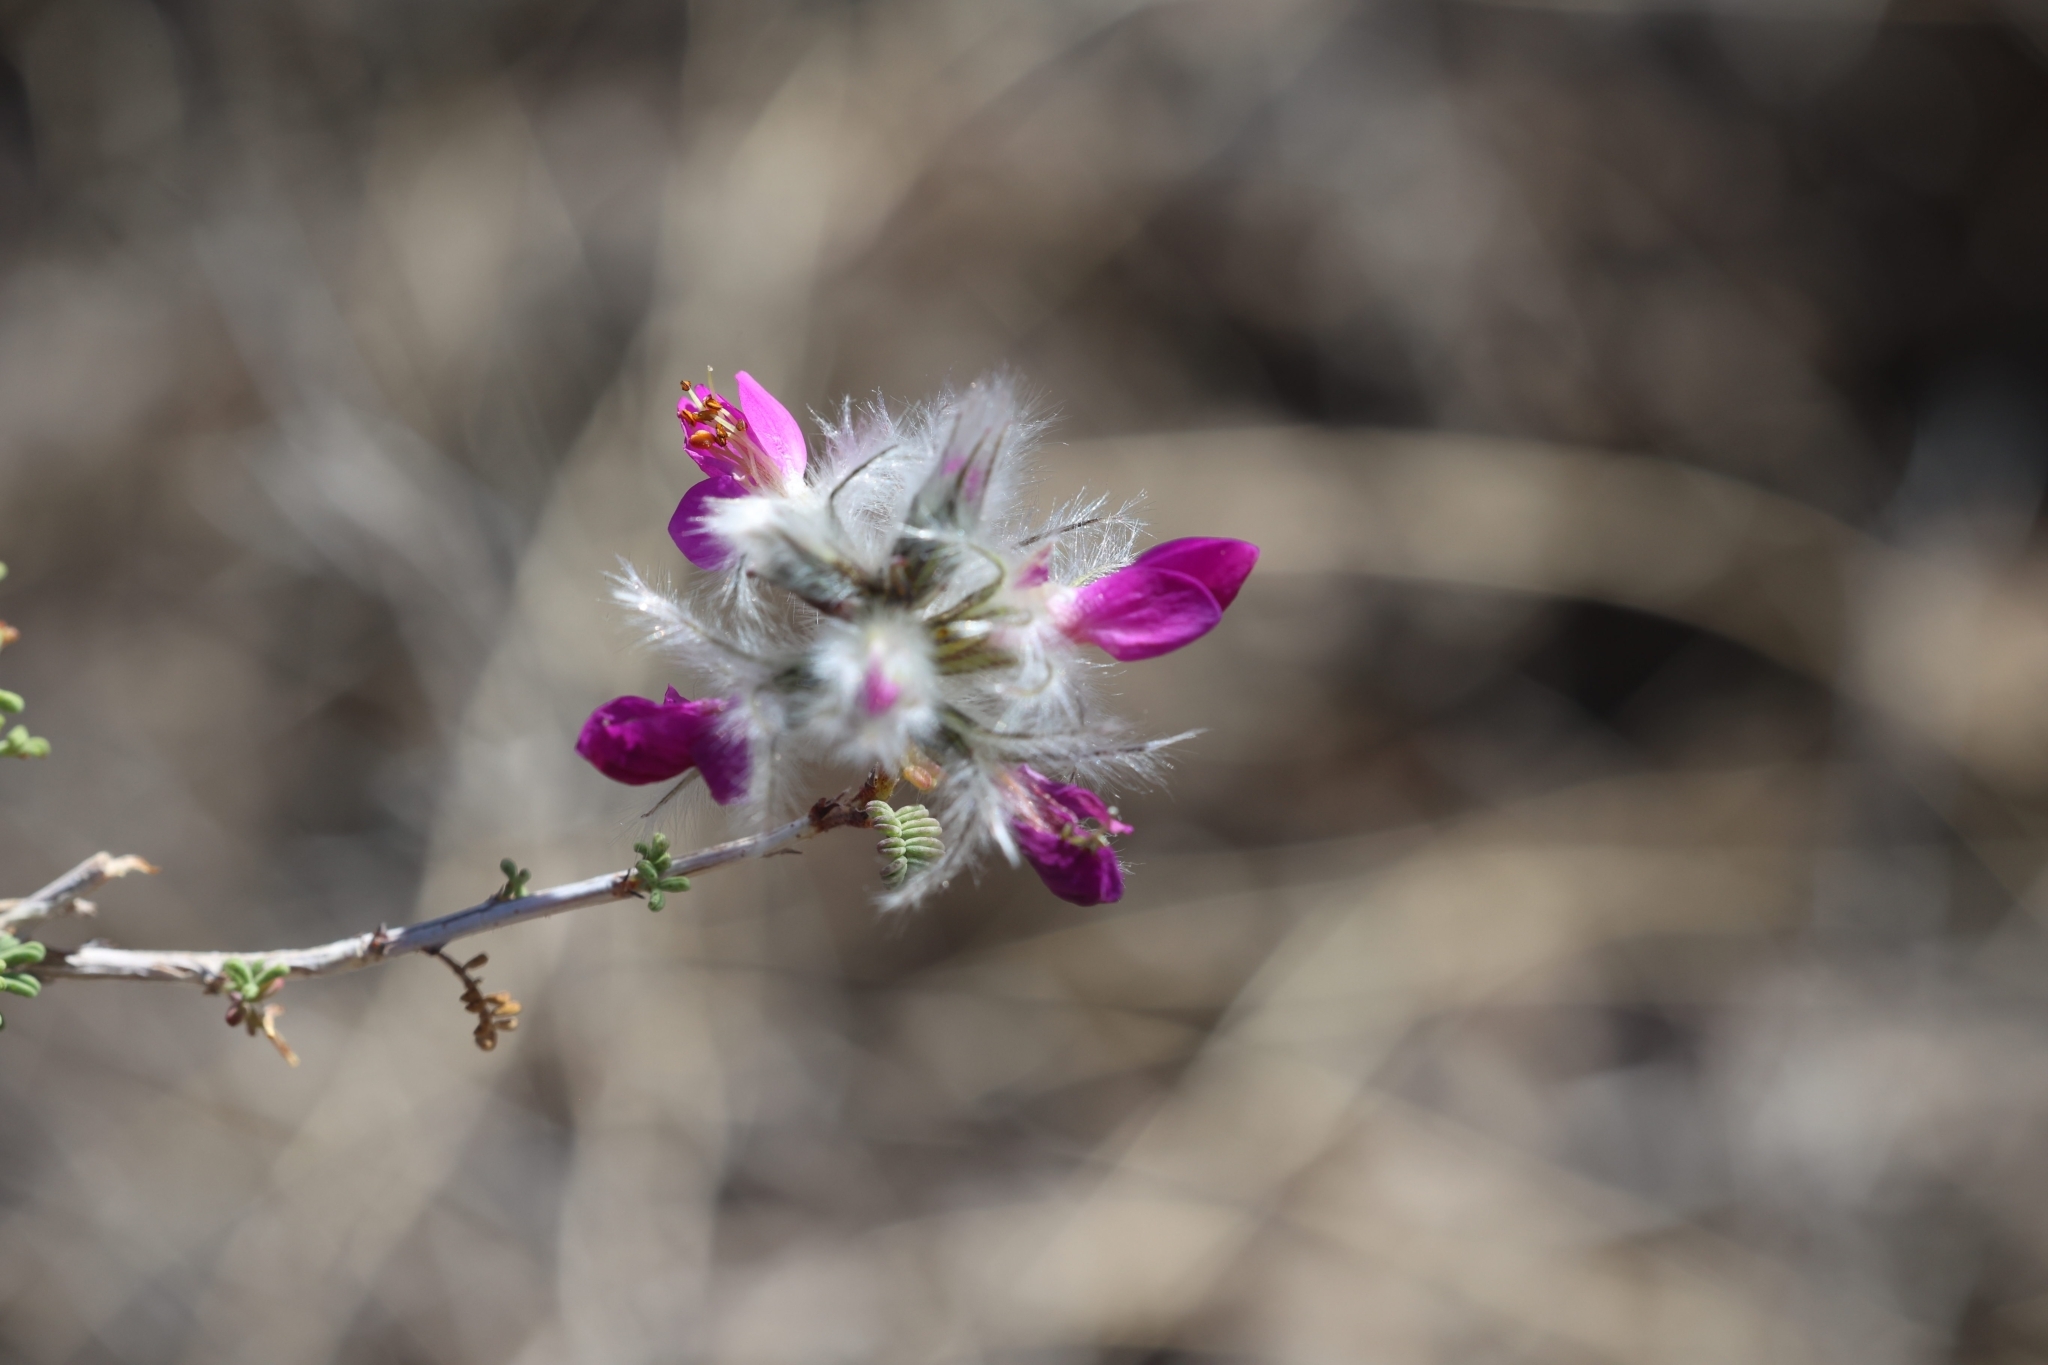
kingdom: Plantae
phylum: Tracheophyta
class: Magnoliopsida
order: Fabales
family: Fabaceae
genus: Dalea
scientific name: Dalea formosa
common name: Feather-plume dalea
